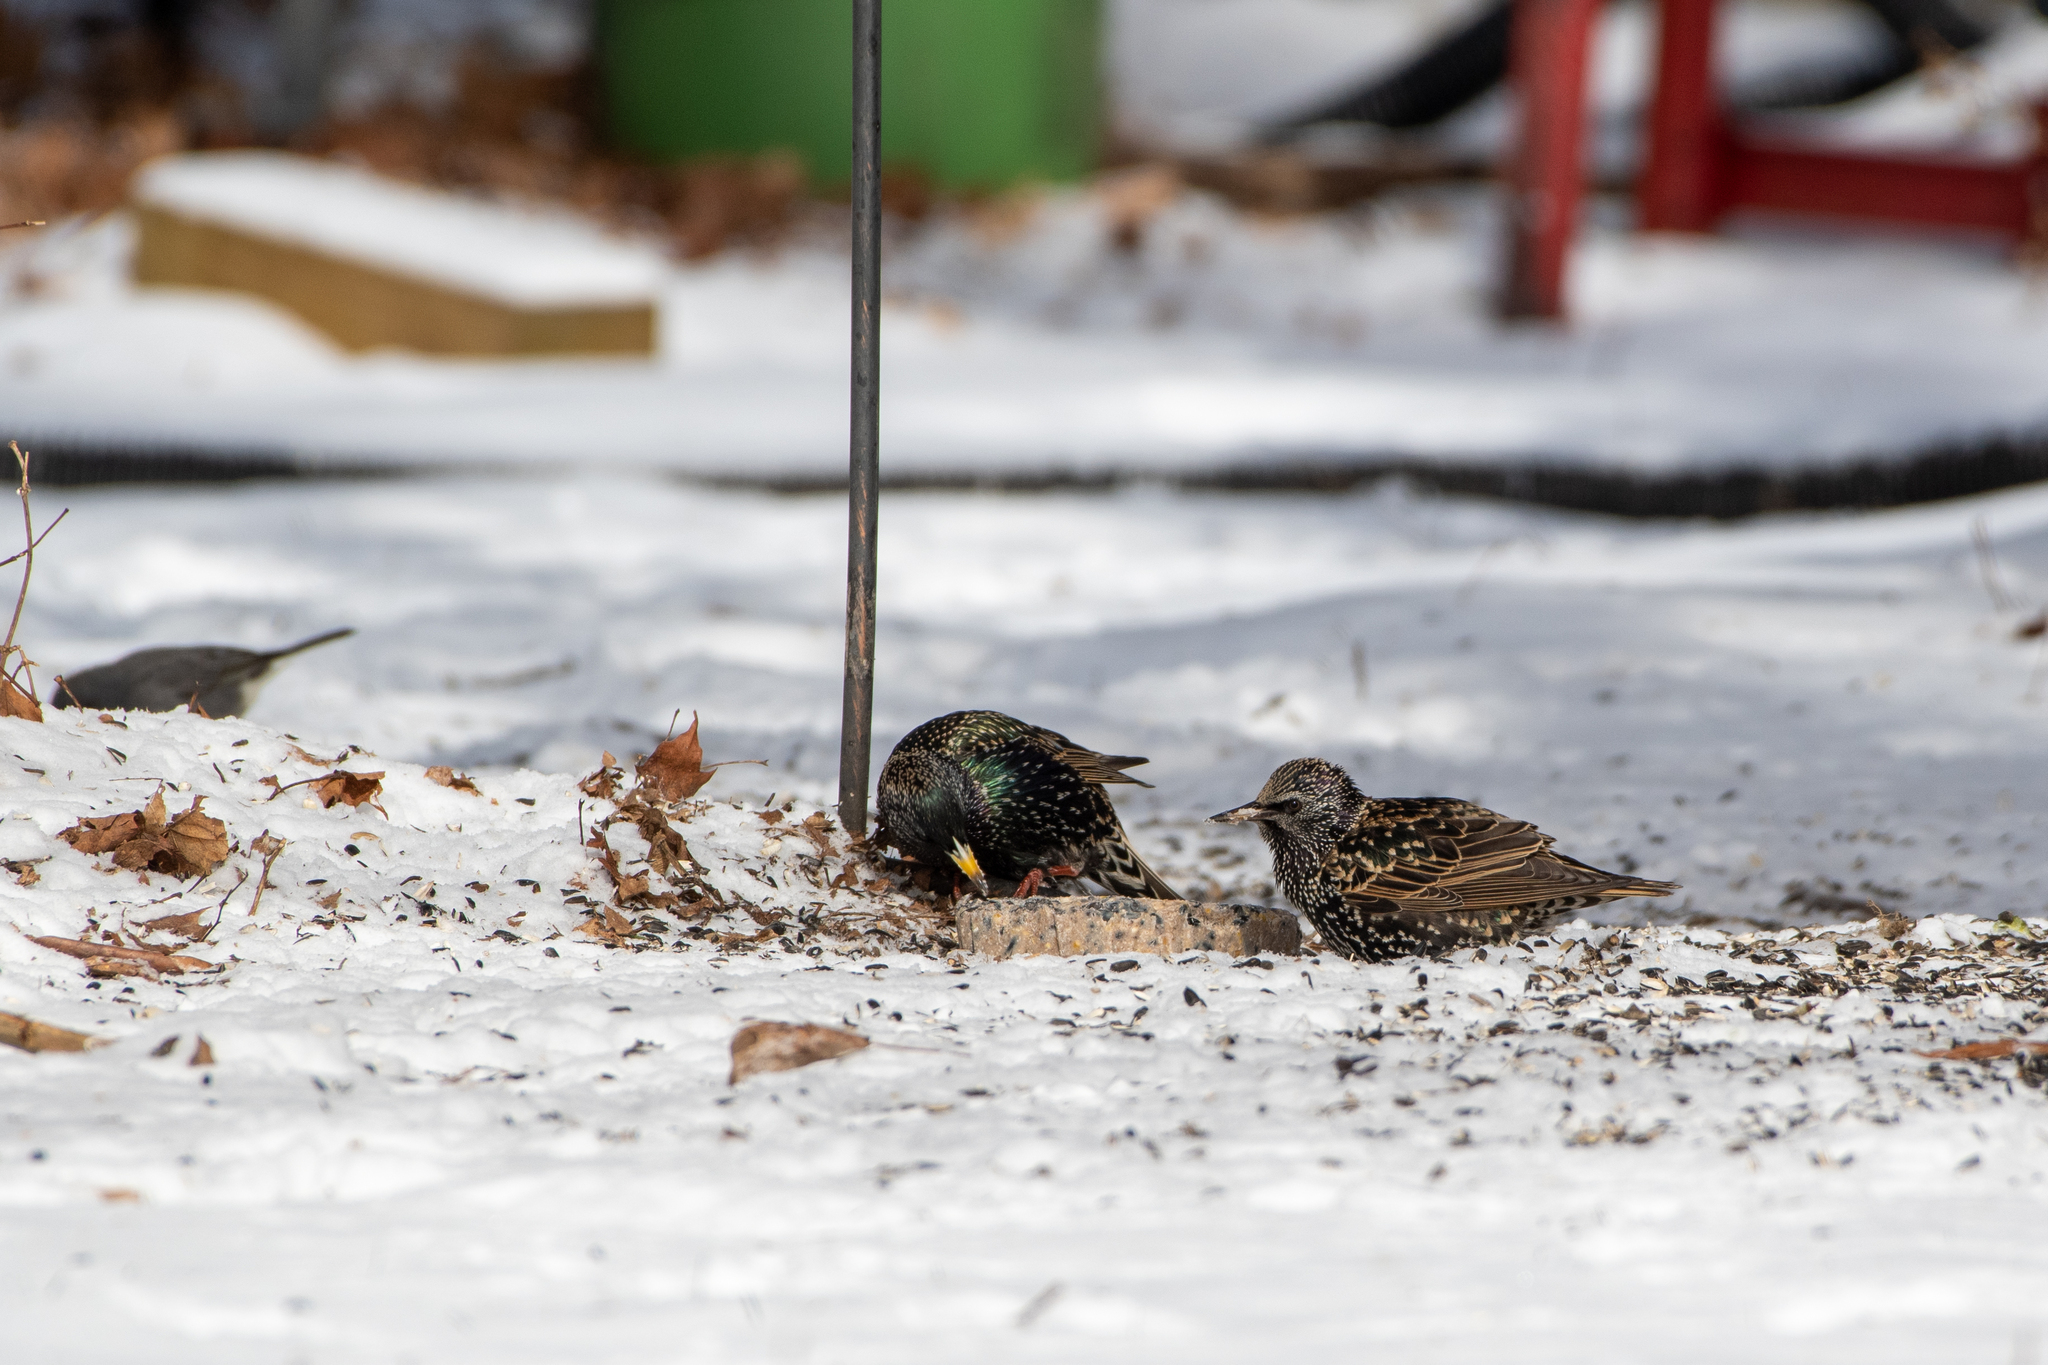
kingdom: Animalia
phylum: Chordata
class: Aves
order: Passeriformes
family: Sturnidae
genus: Sturnus
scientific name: Sturnus vulgaris
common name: Common starling
